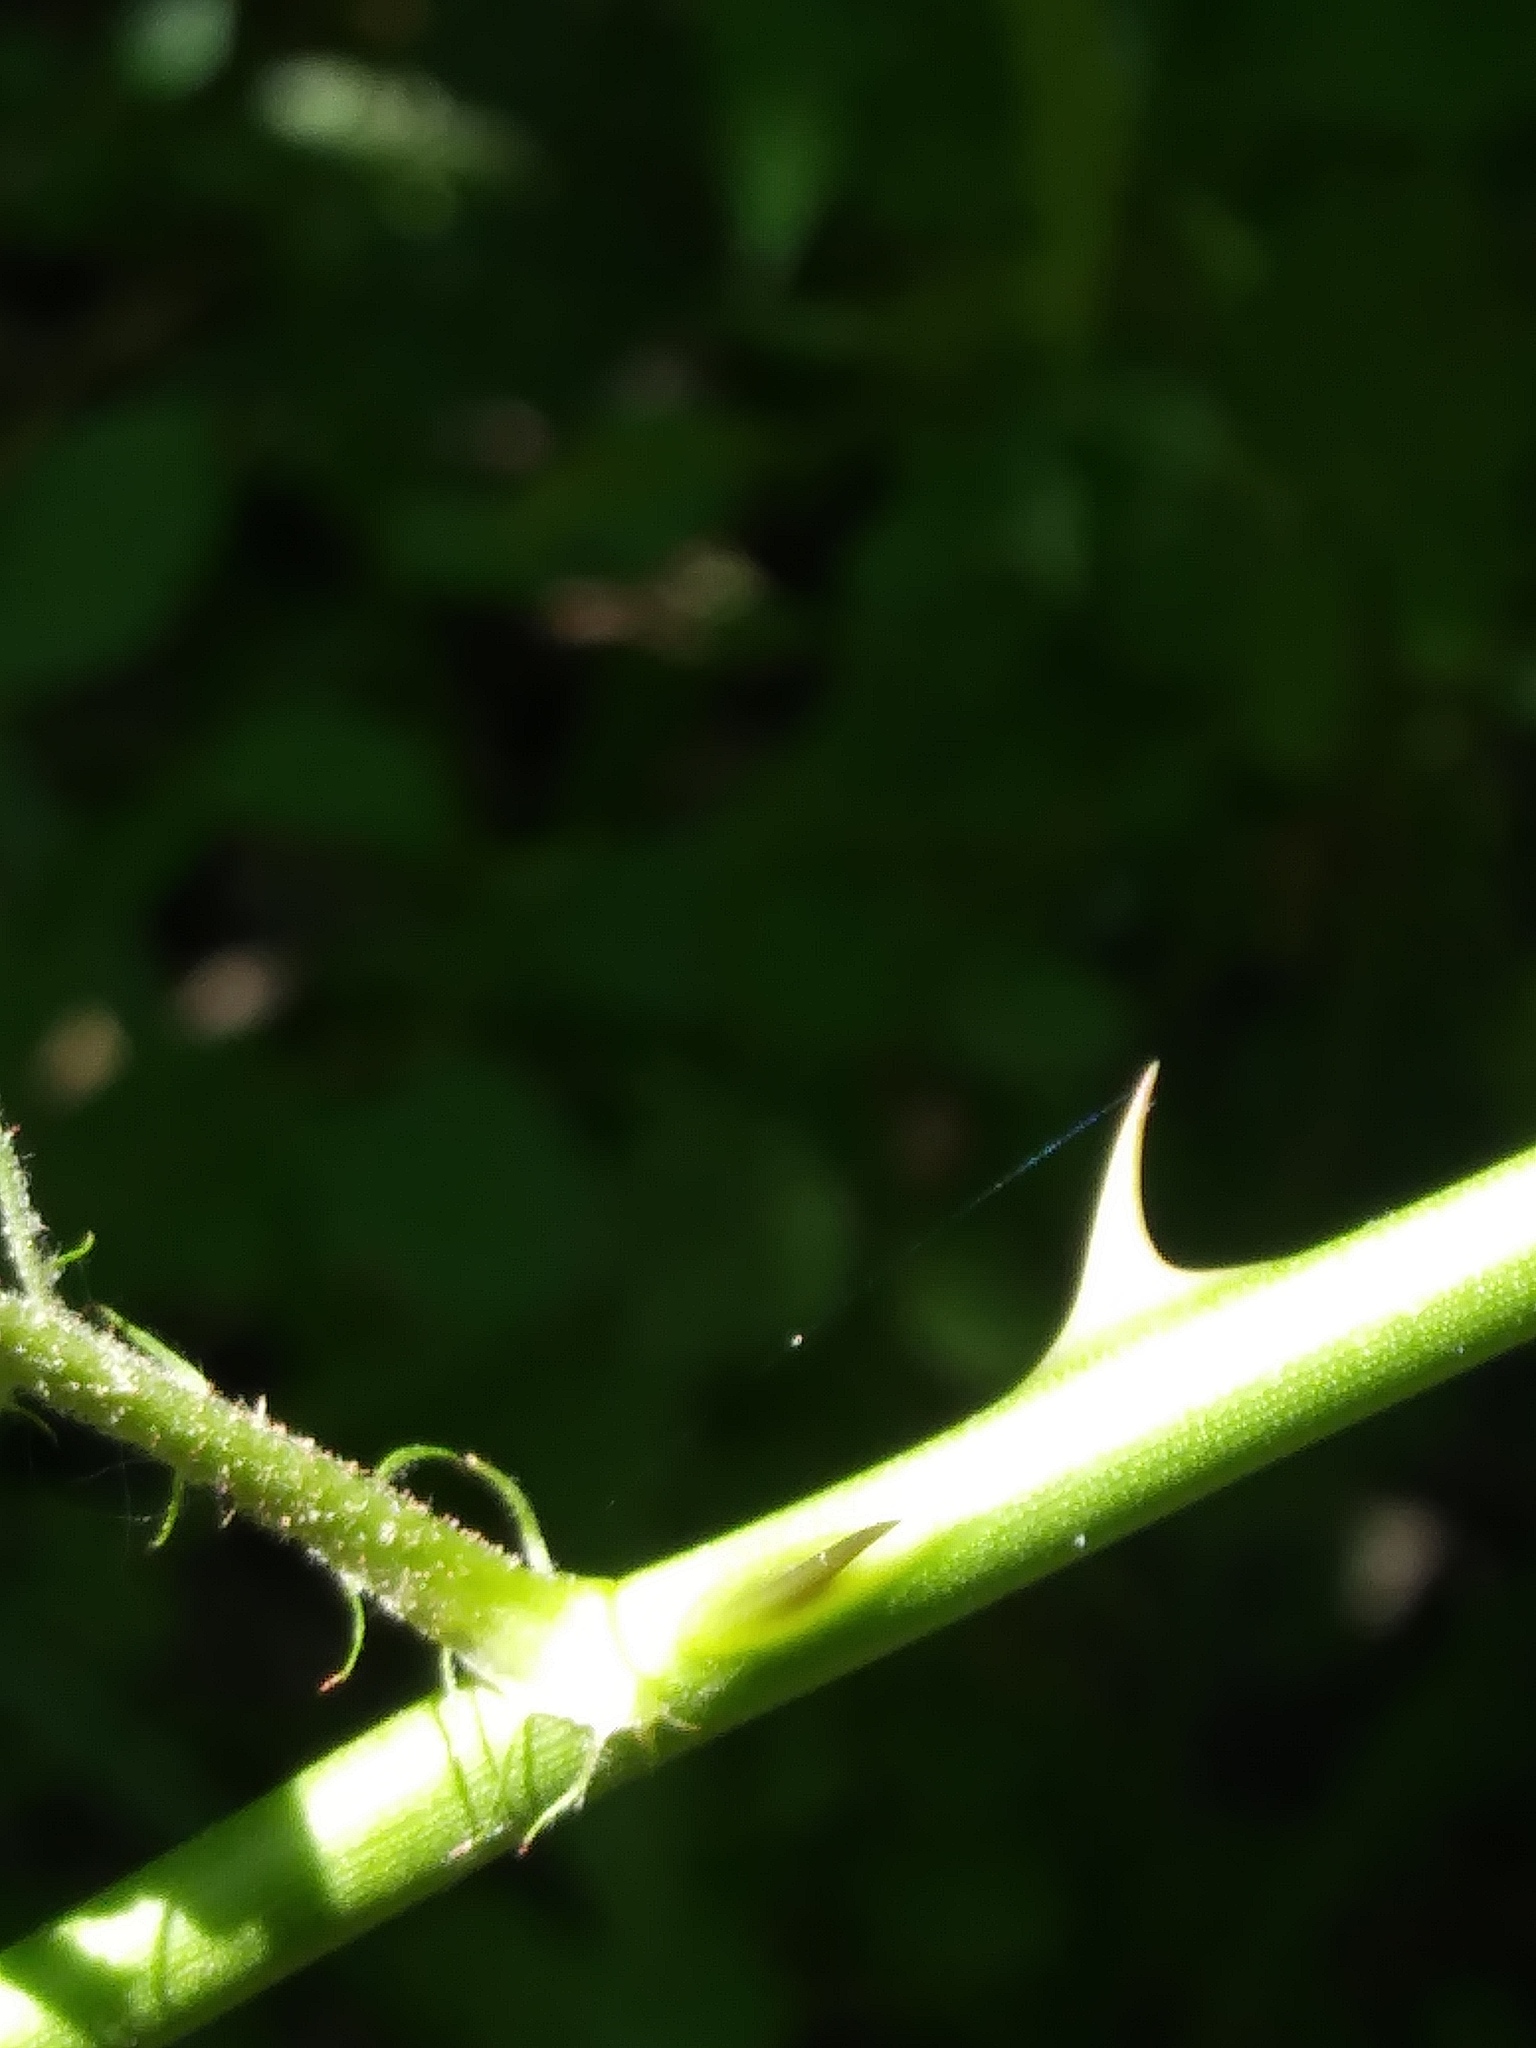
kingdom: Plantae
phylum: Tracheophyta
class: Magnoliopsida
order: Rosales
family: Rosaceae
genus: Rosa
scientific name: Rosa multiflora
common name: Multiflora rose
